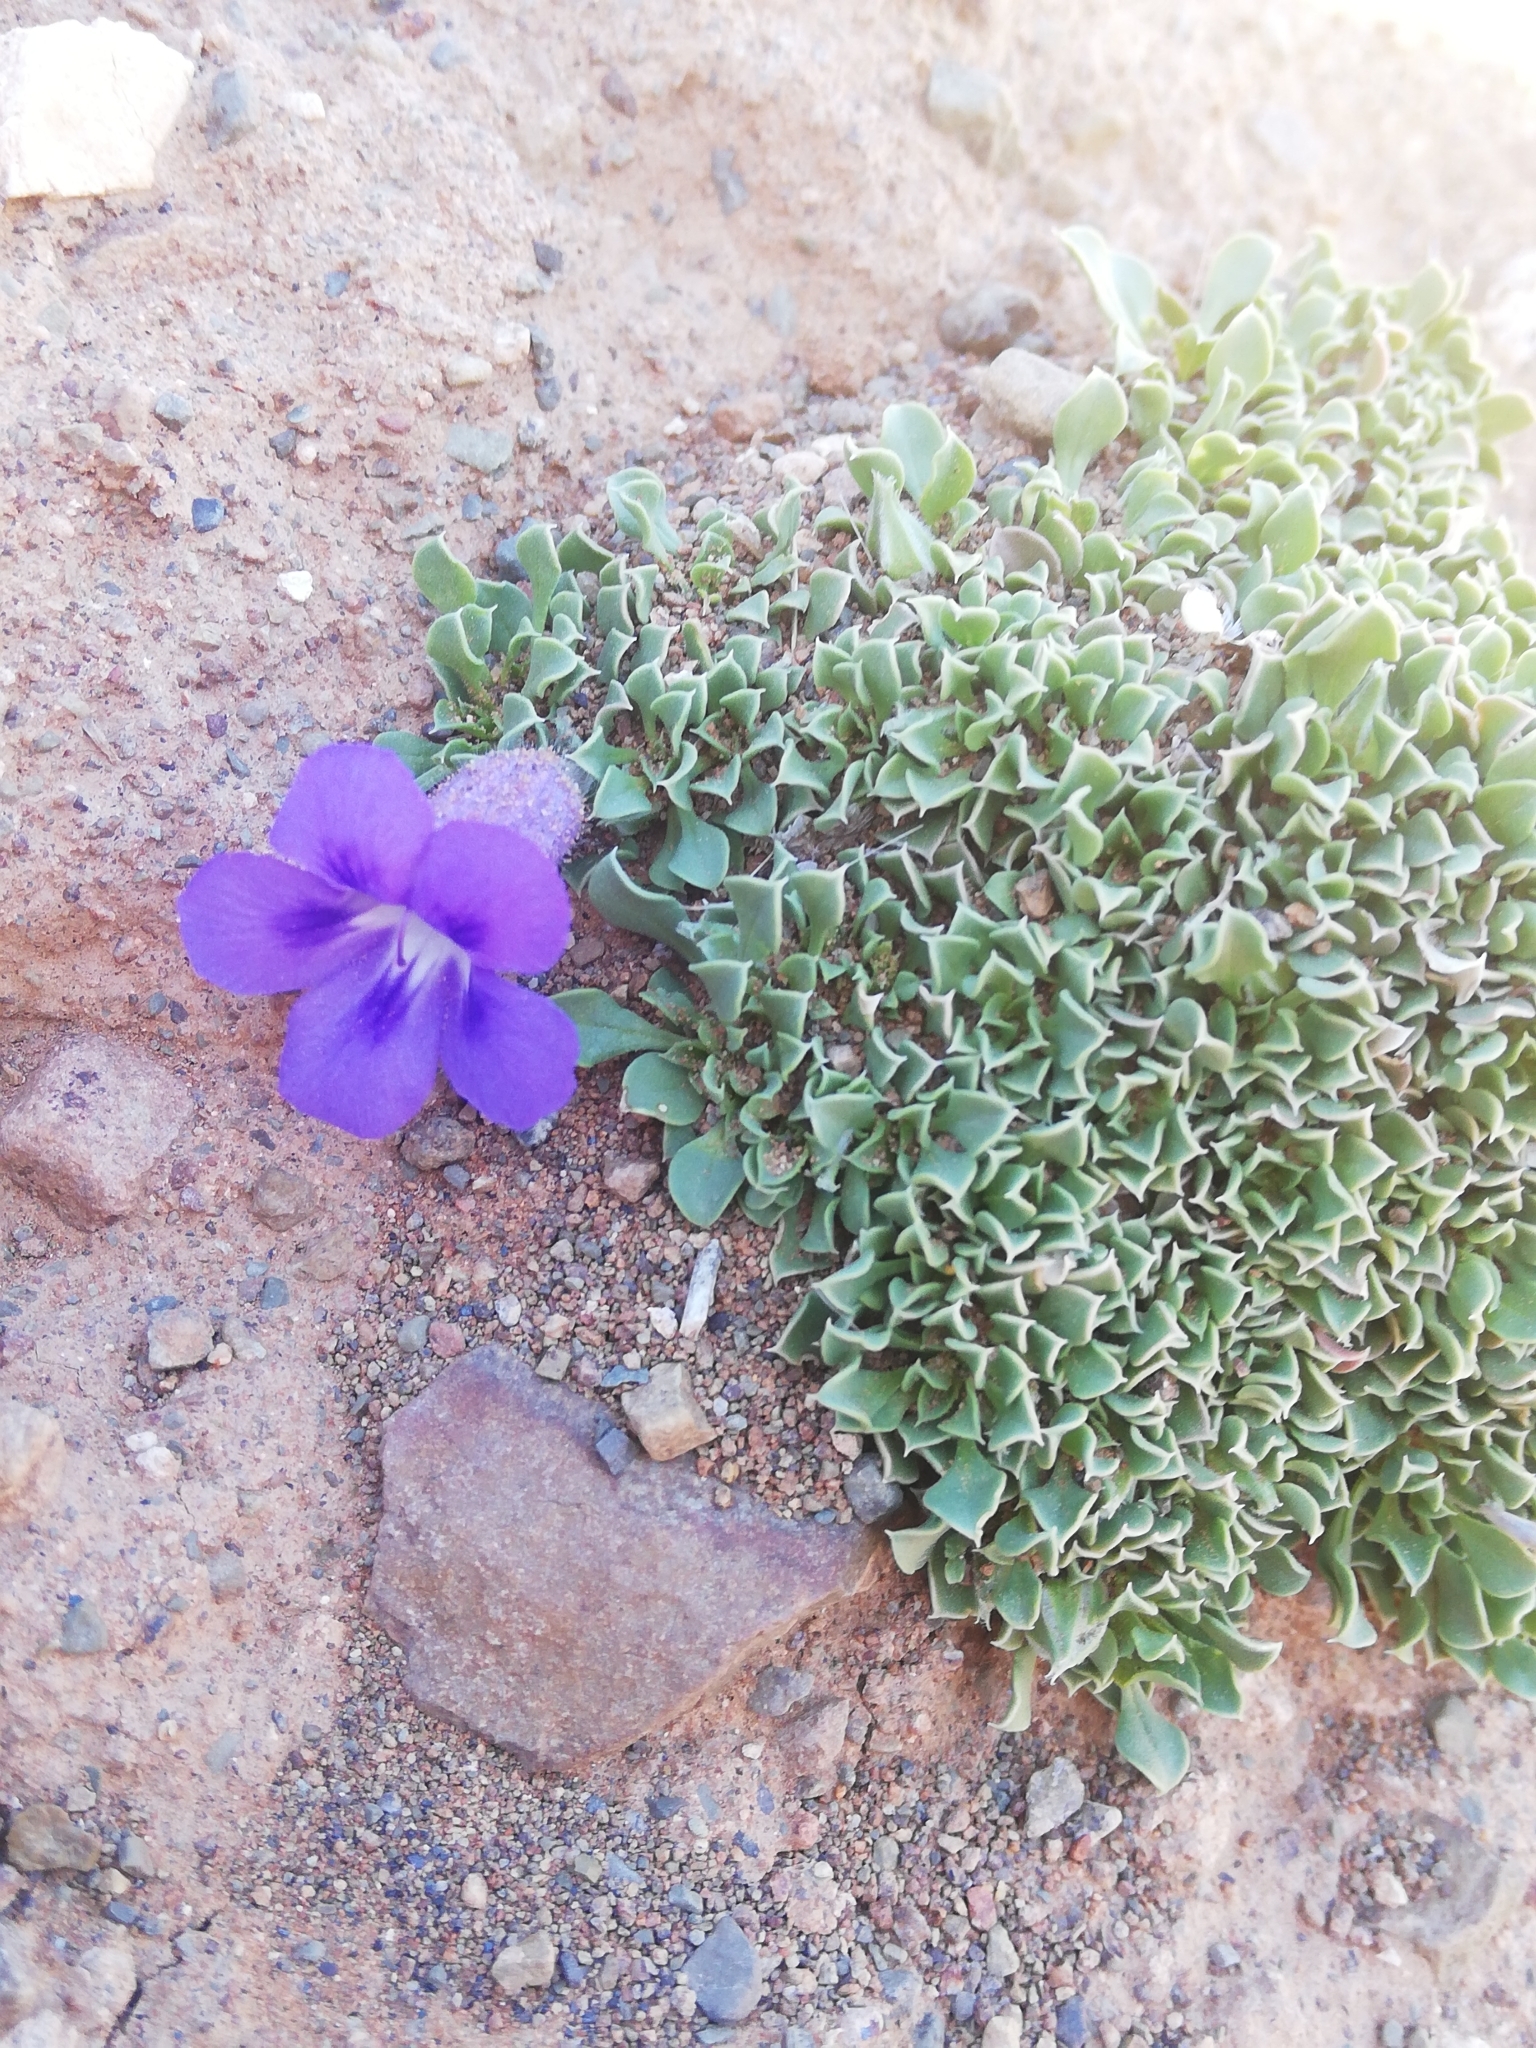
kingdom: Plantae
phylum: Tracheophyta
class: Magnoliopsida
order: Lamiales
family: Scrophulariaceae
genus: Aptosimum
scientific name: Aptosimum procumbens
